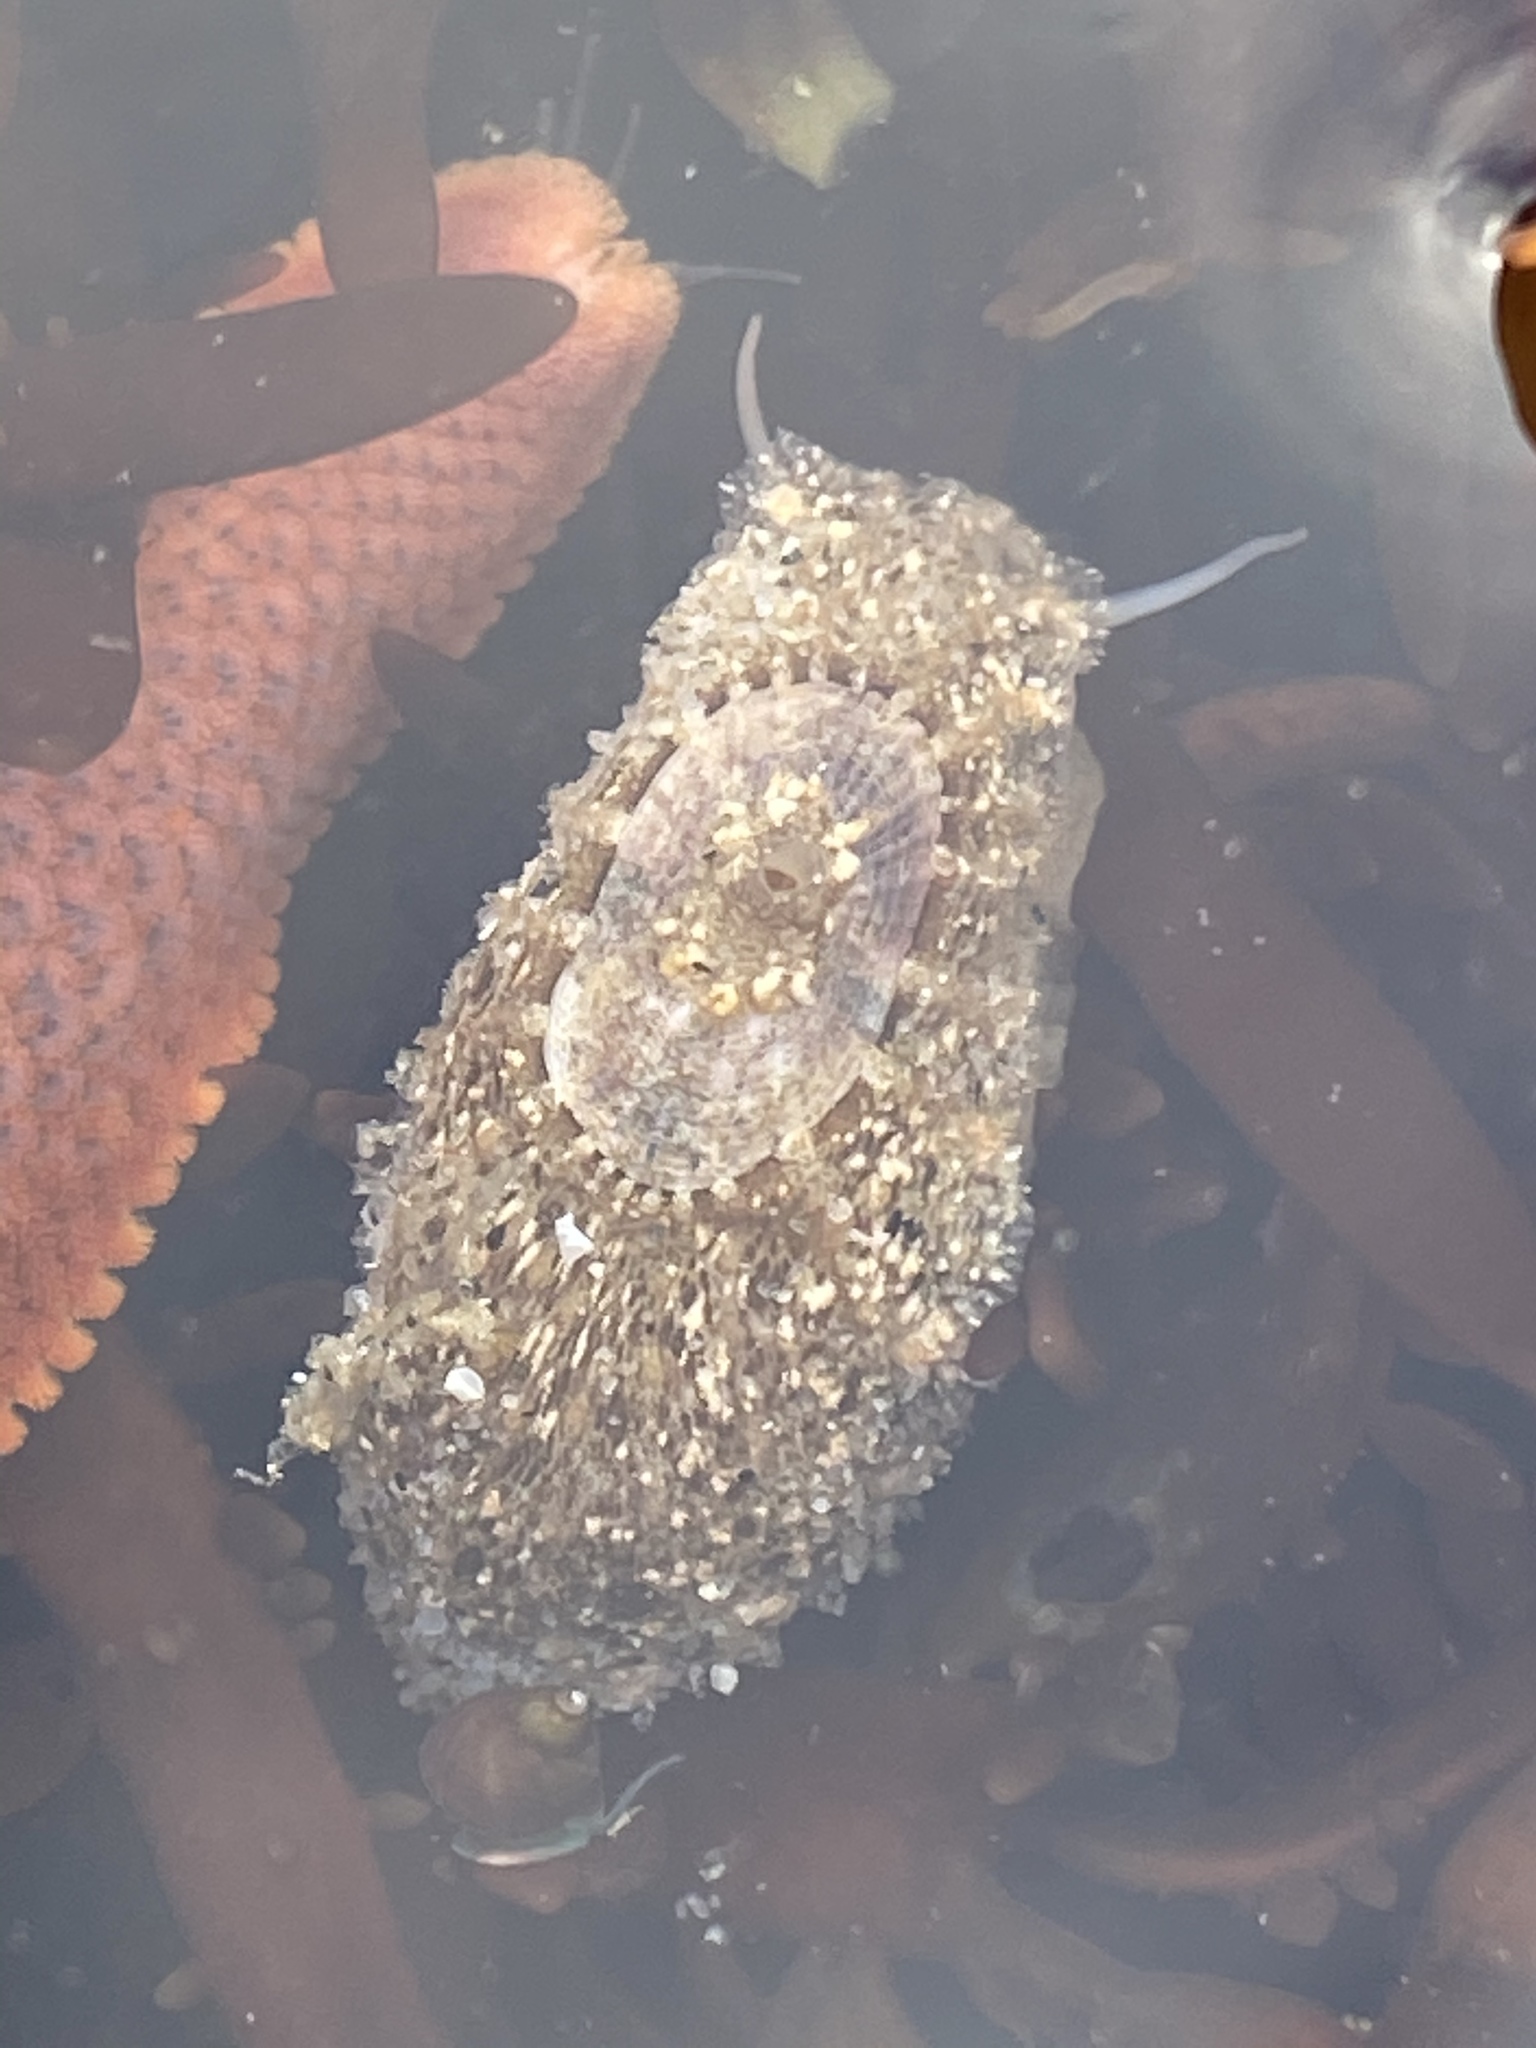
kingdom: Animalia
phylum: Mollusca
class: Gastropoda
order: Lepetellida
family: Fissurellidae
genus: Fissurellidea
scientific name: Fissurellidea bimaculata
